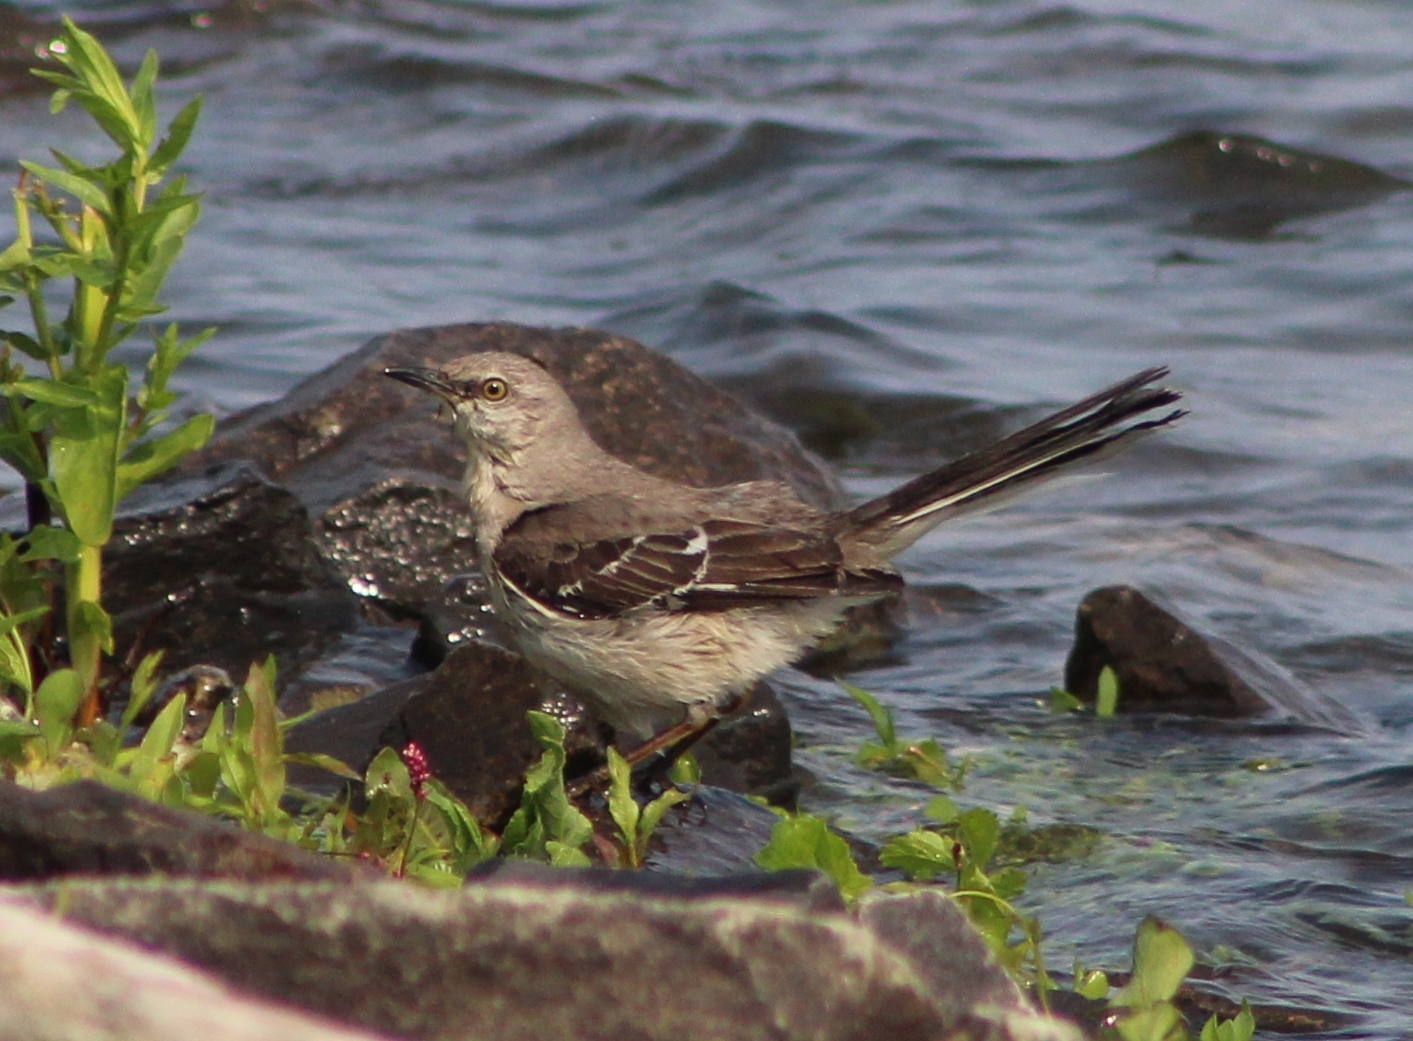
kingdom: Animalia
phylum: Chordata
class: Aves
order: Passeriformes
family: Mimidae
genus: Mimus
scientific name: Mimus polyglottos
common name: Northern mockingbird
